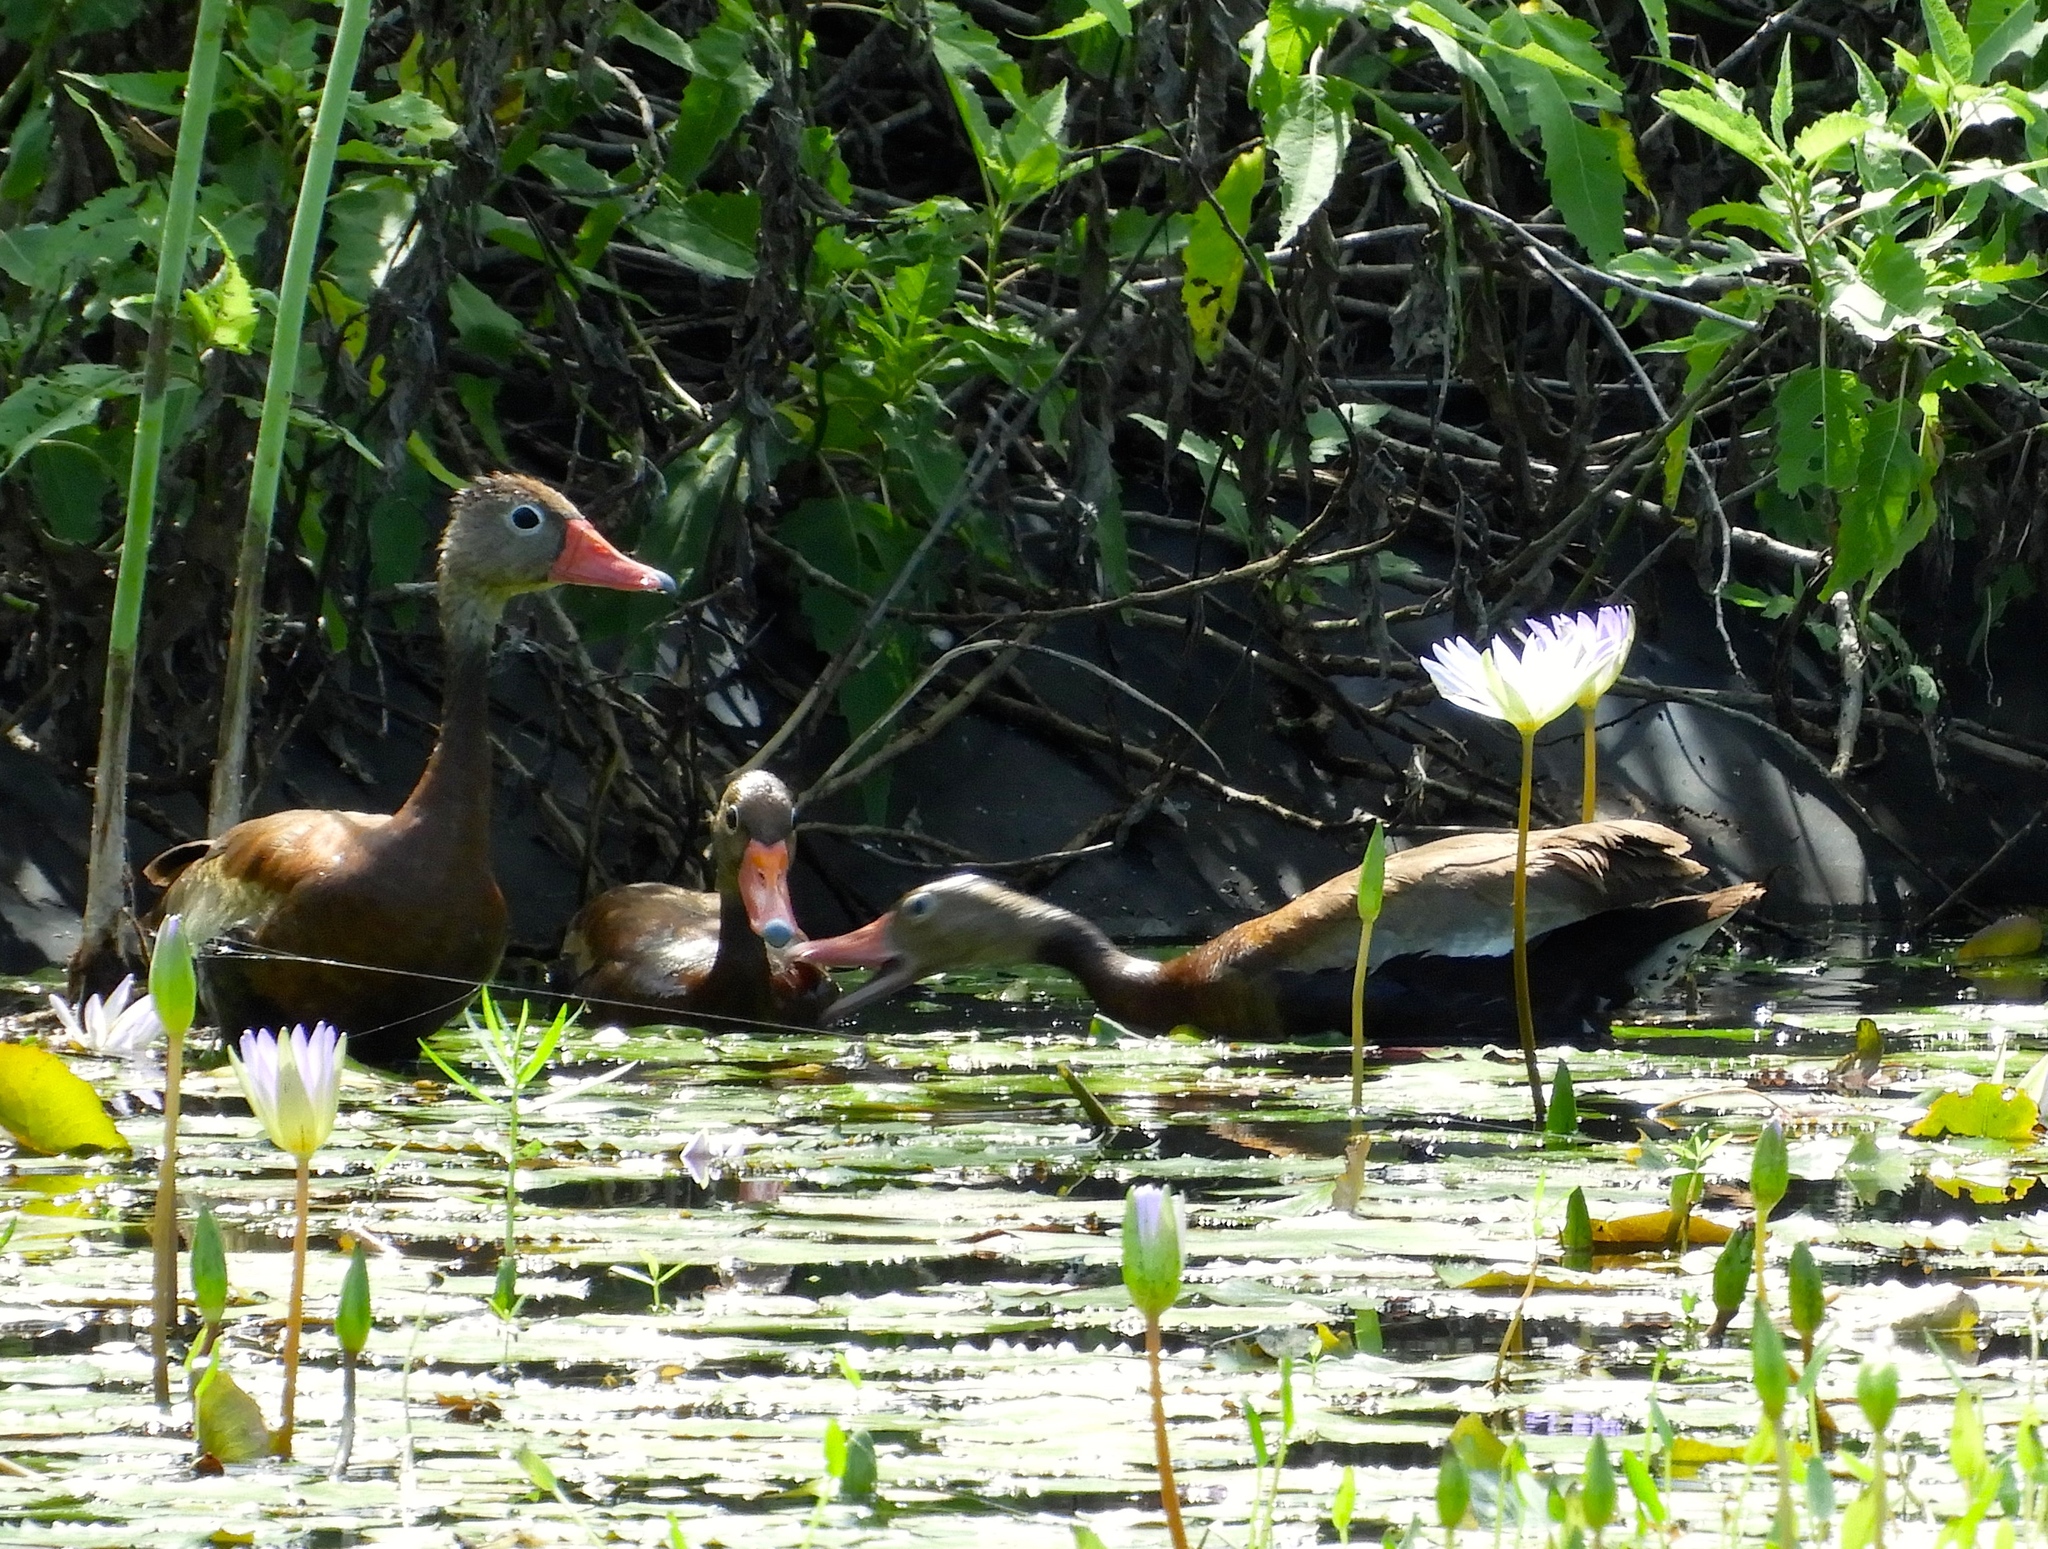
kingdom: Animalia
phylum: Chordata
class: Aves
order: Anseriformes
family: Anatidae
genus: Dendrocygna
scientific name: Dendrocygna autumnalis
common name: Black-bellied whistling duck
